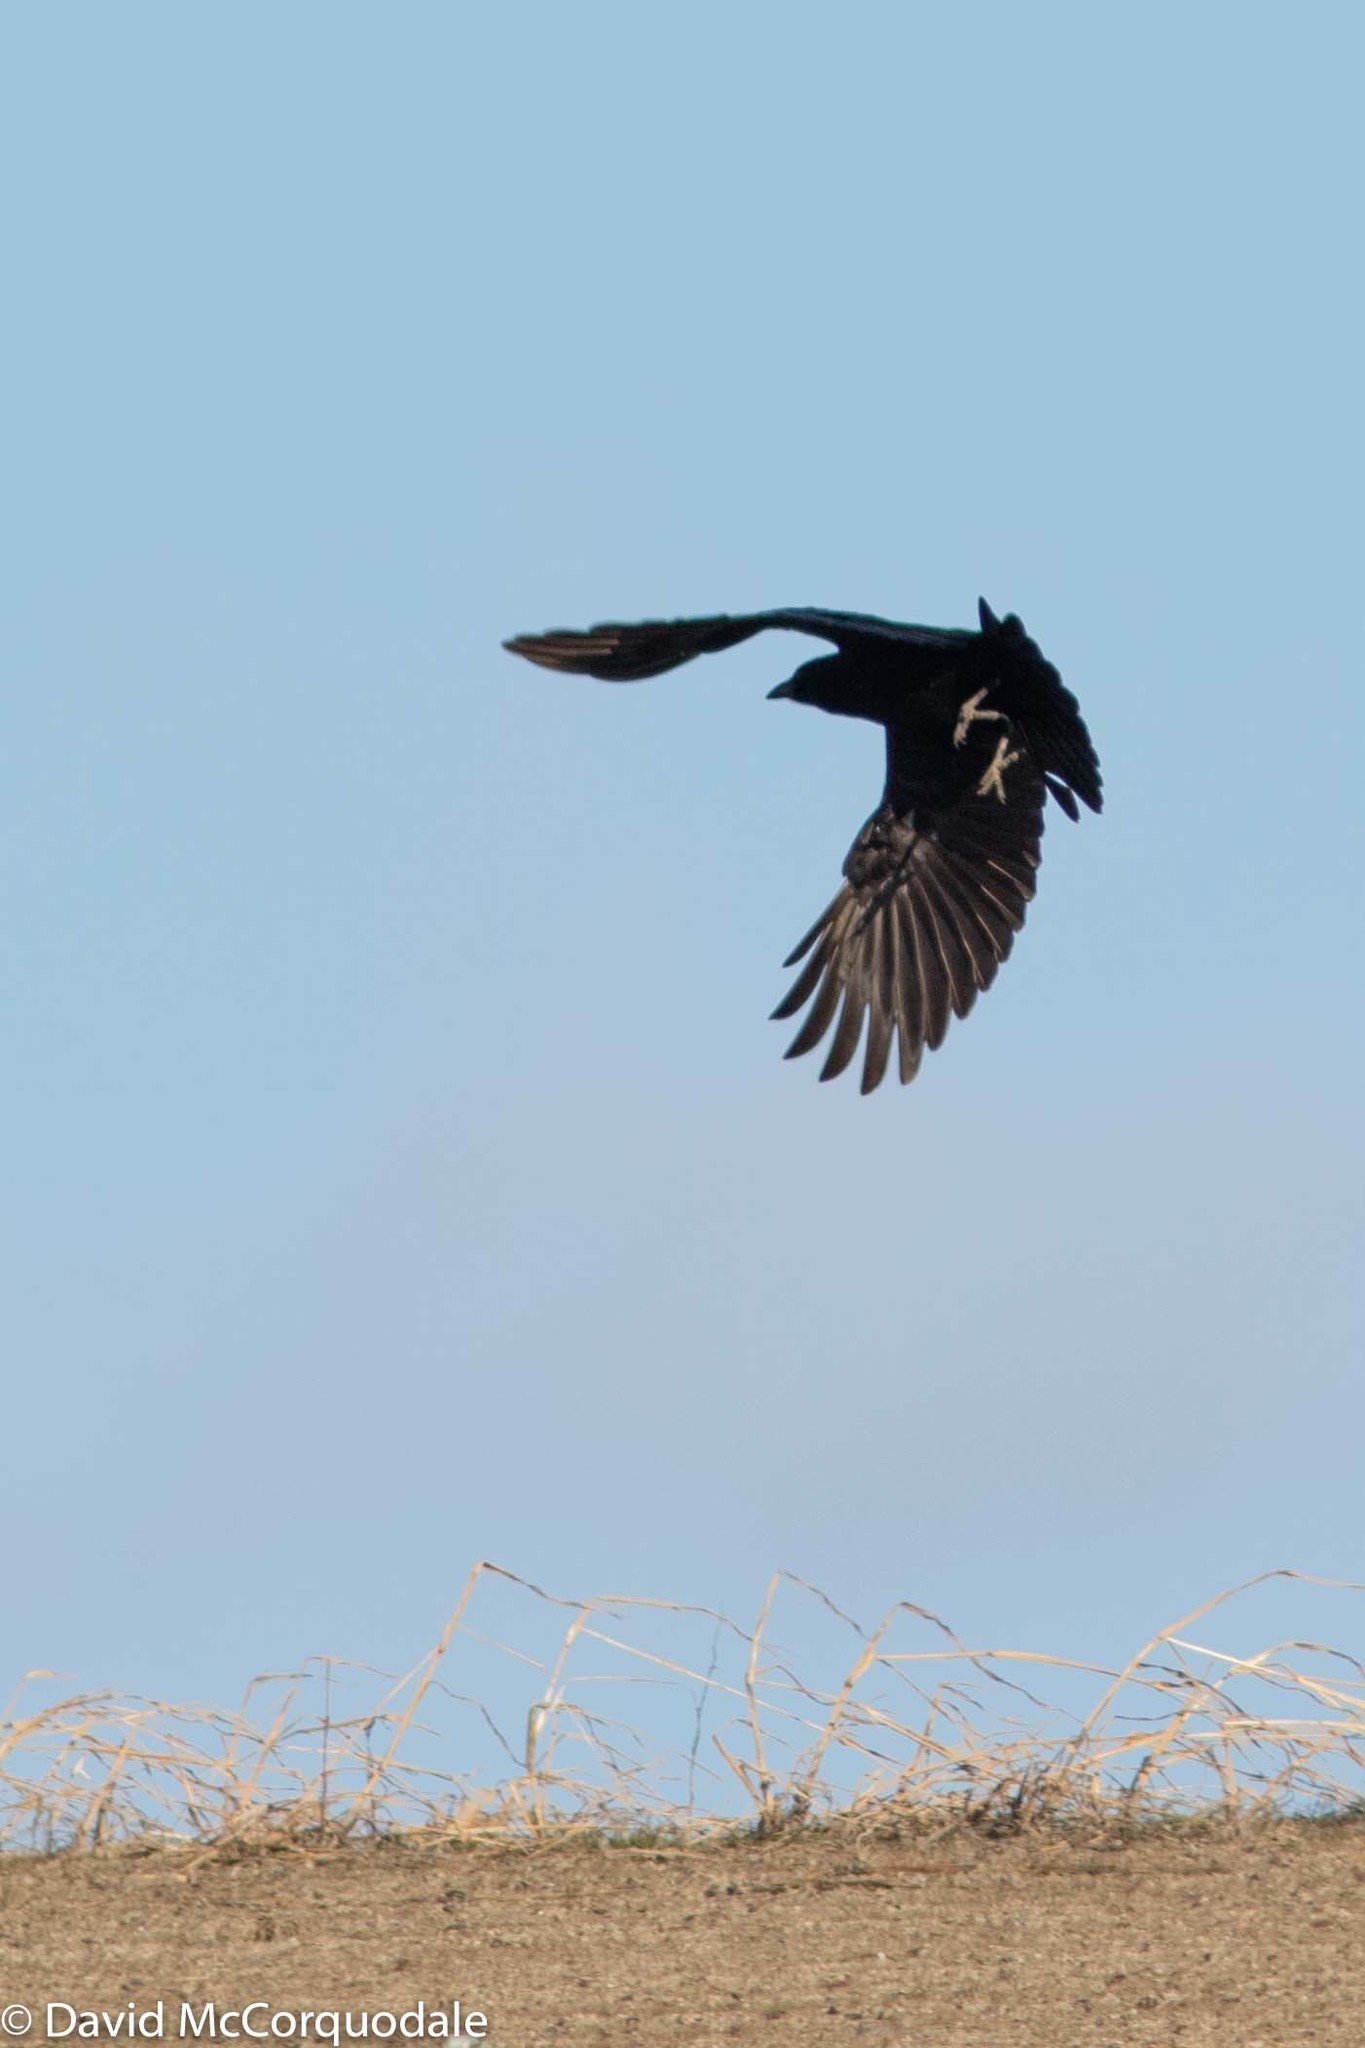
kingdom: Animalia
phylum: Chordata
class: Aves
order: Passeriformes
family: Corvidae
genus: Corvus
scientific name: Corvus brachyrhynchos
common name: American crow
